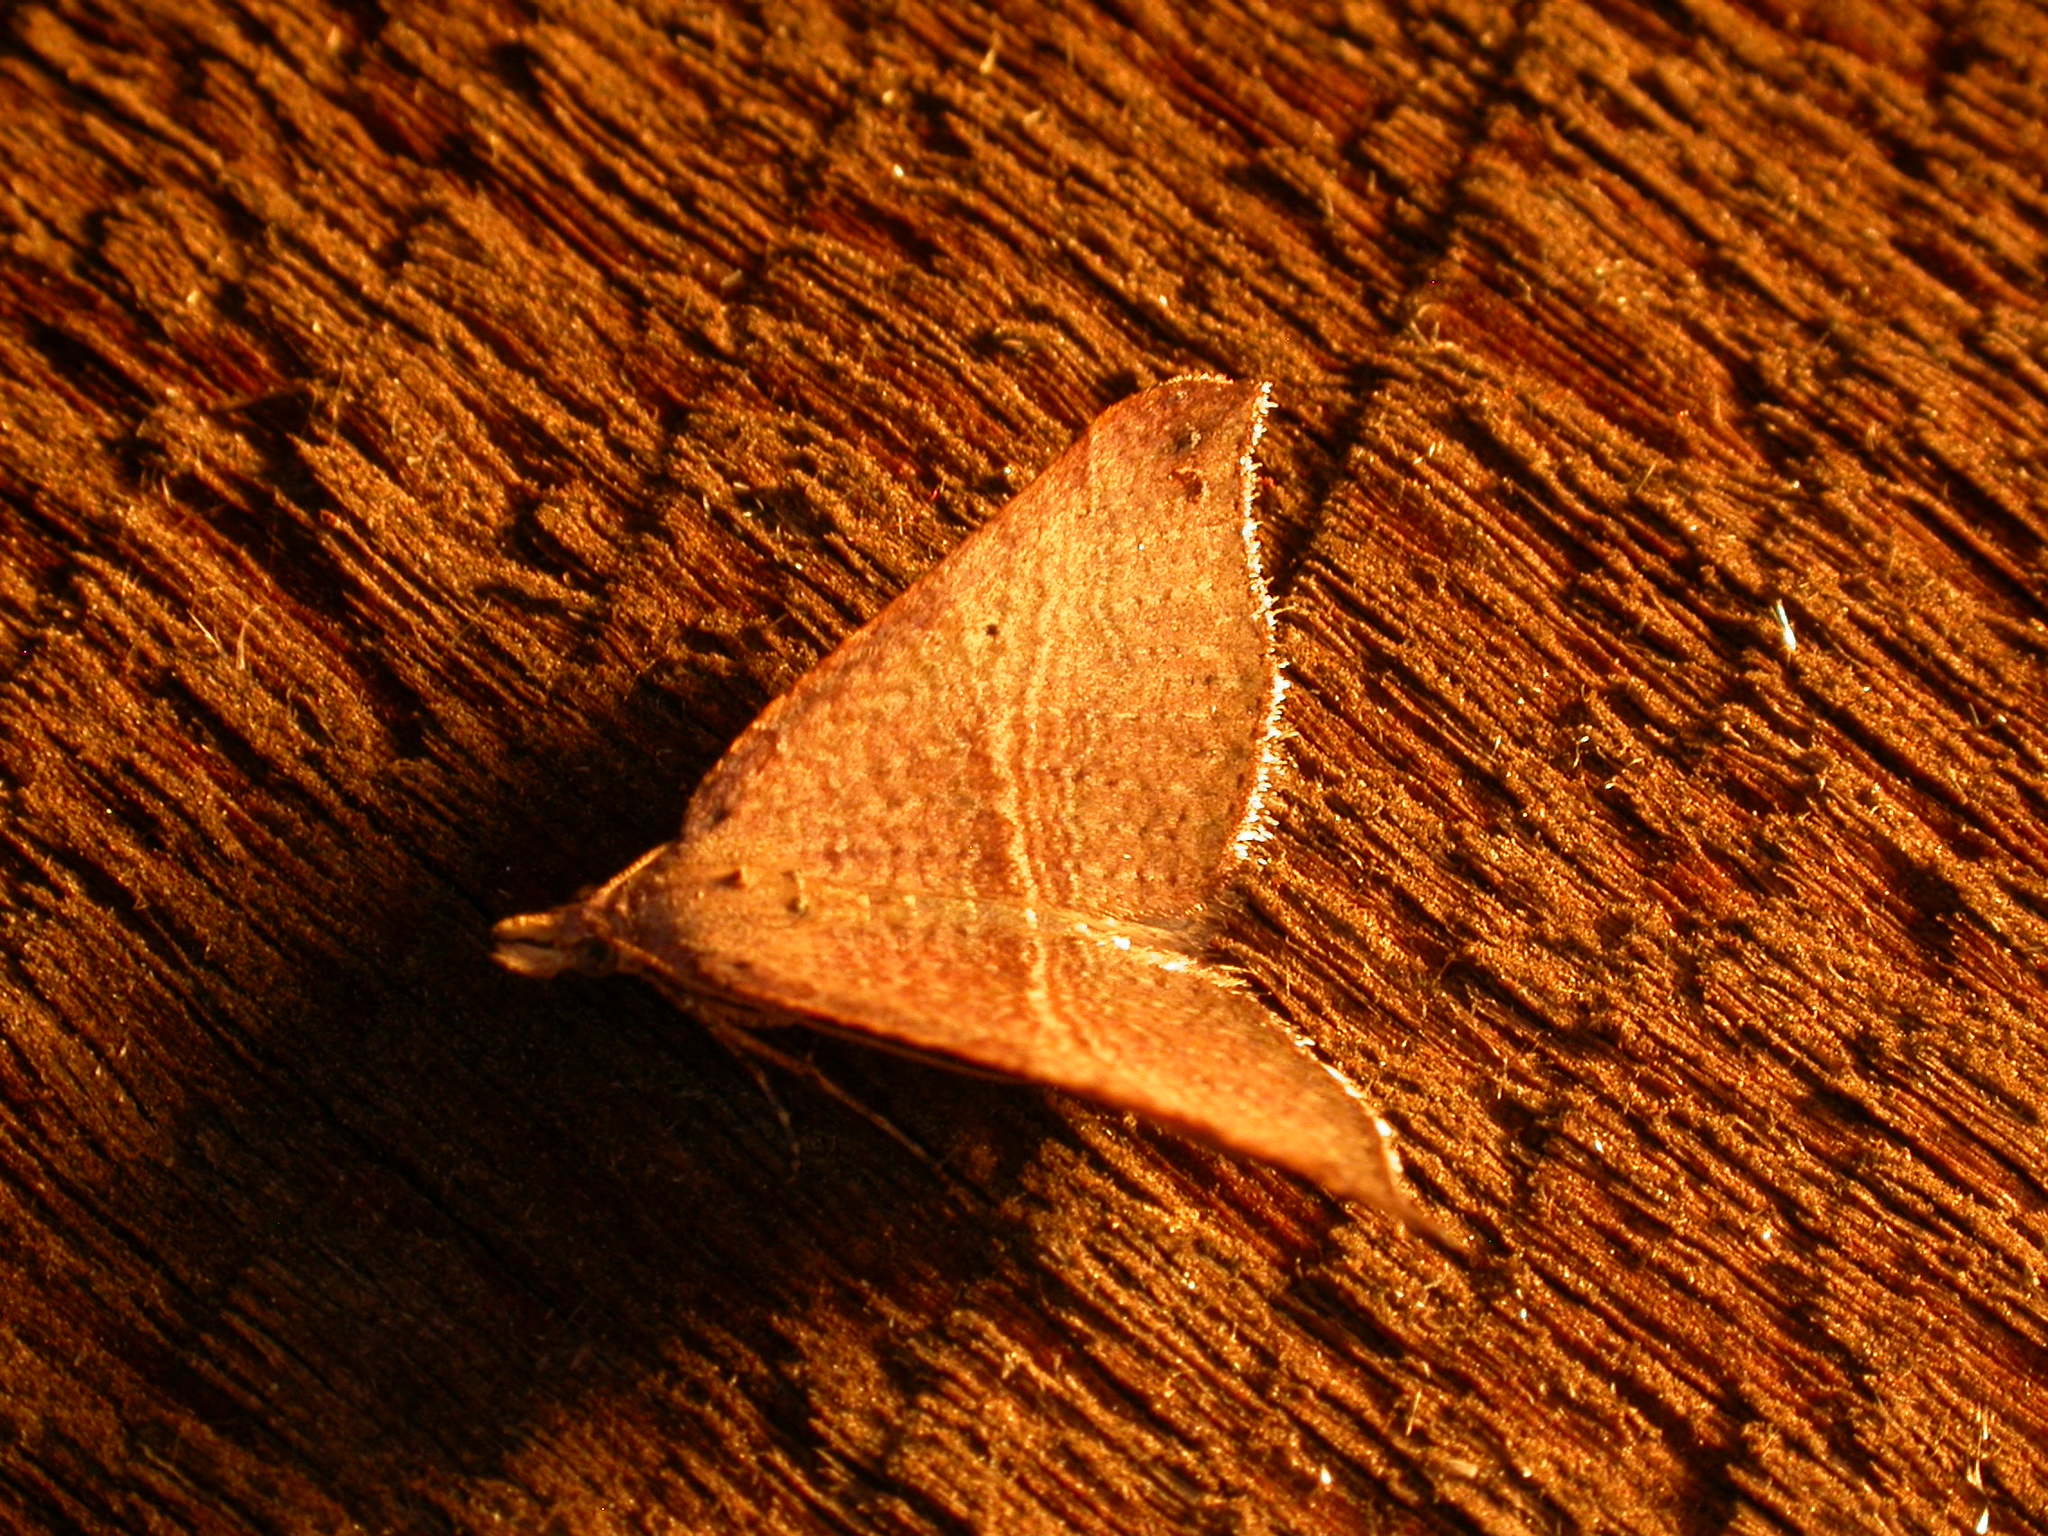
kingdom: Animalia
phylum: Arthropoda
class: Insecta
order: Lepidoptera
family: Geometridae
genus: Anachloris
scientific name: Anachloris uncinata
